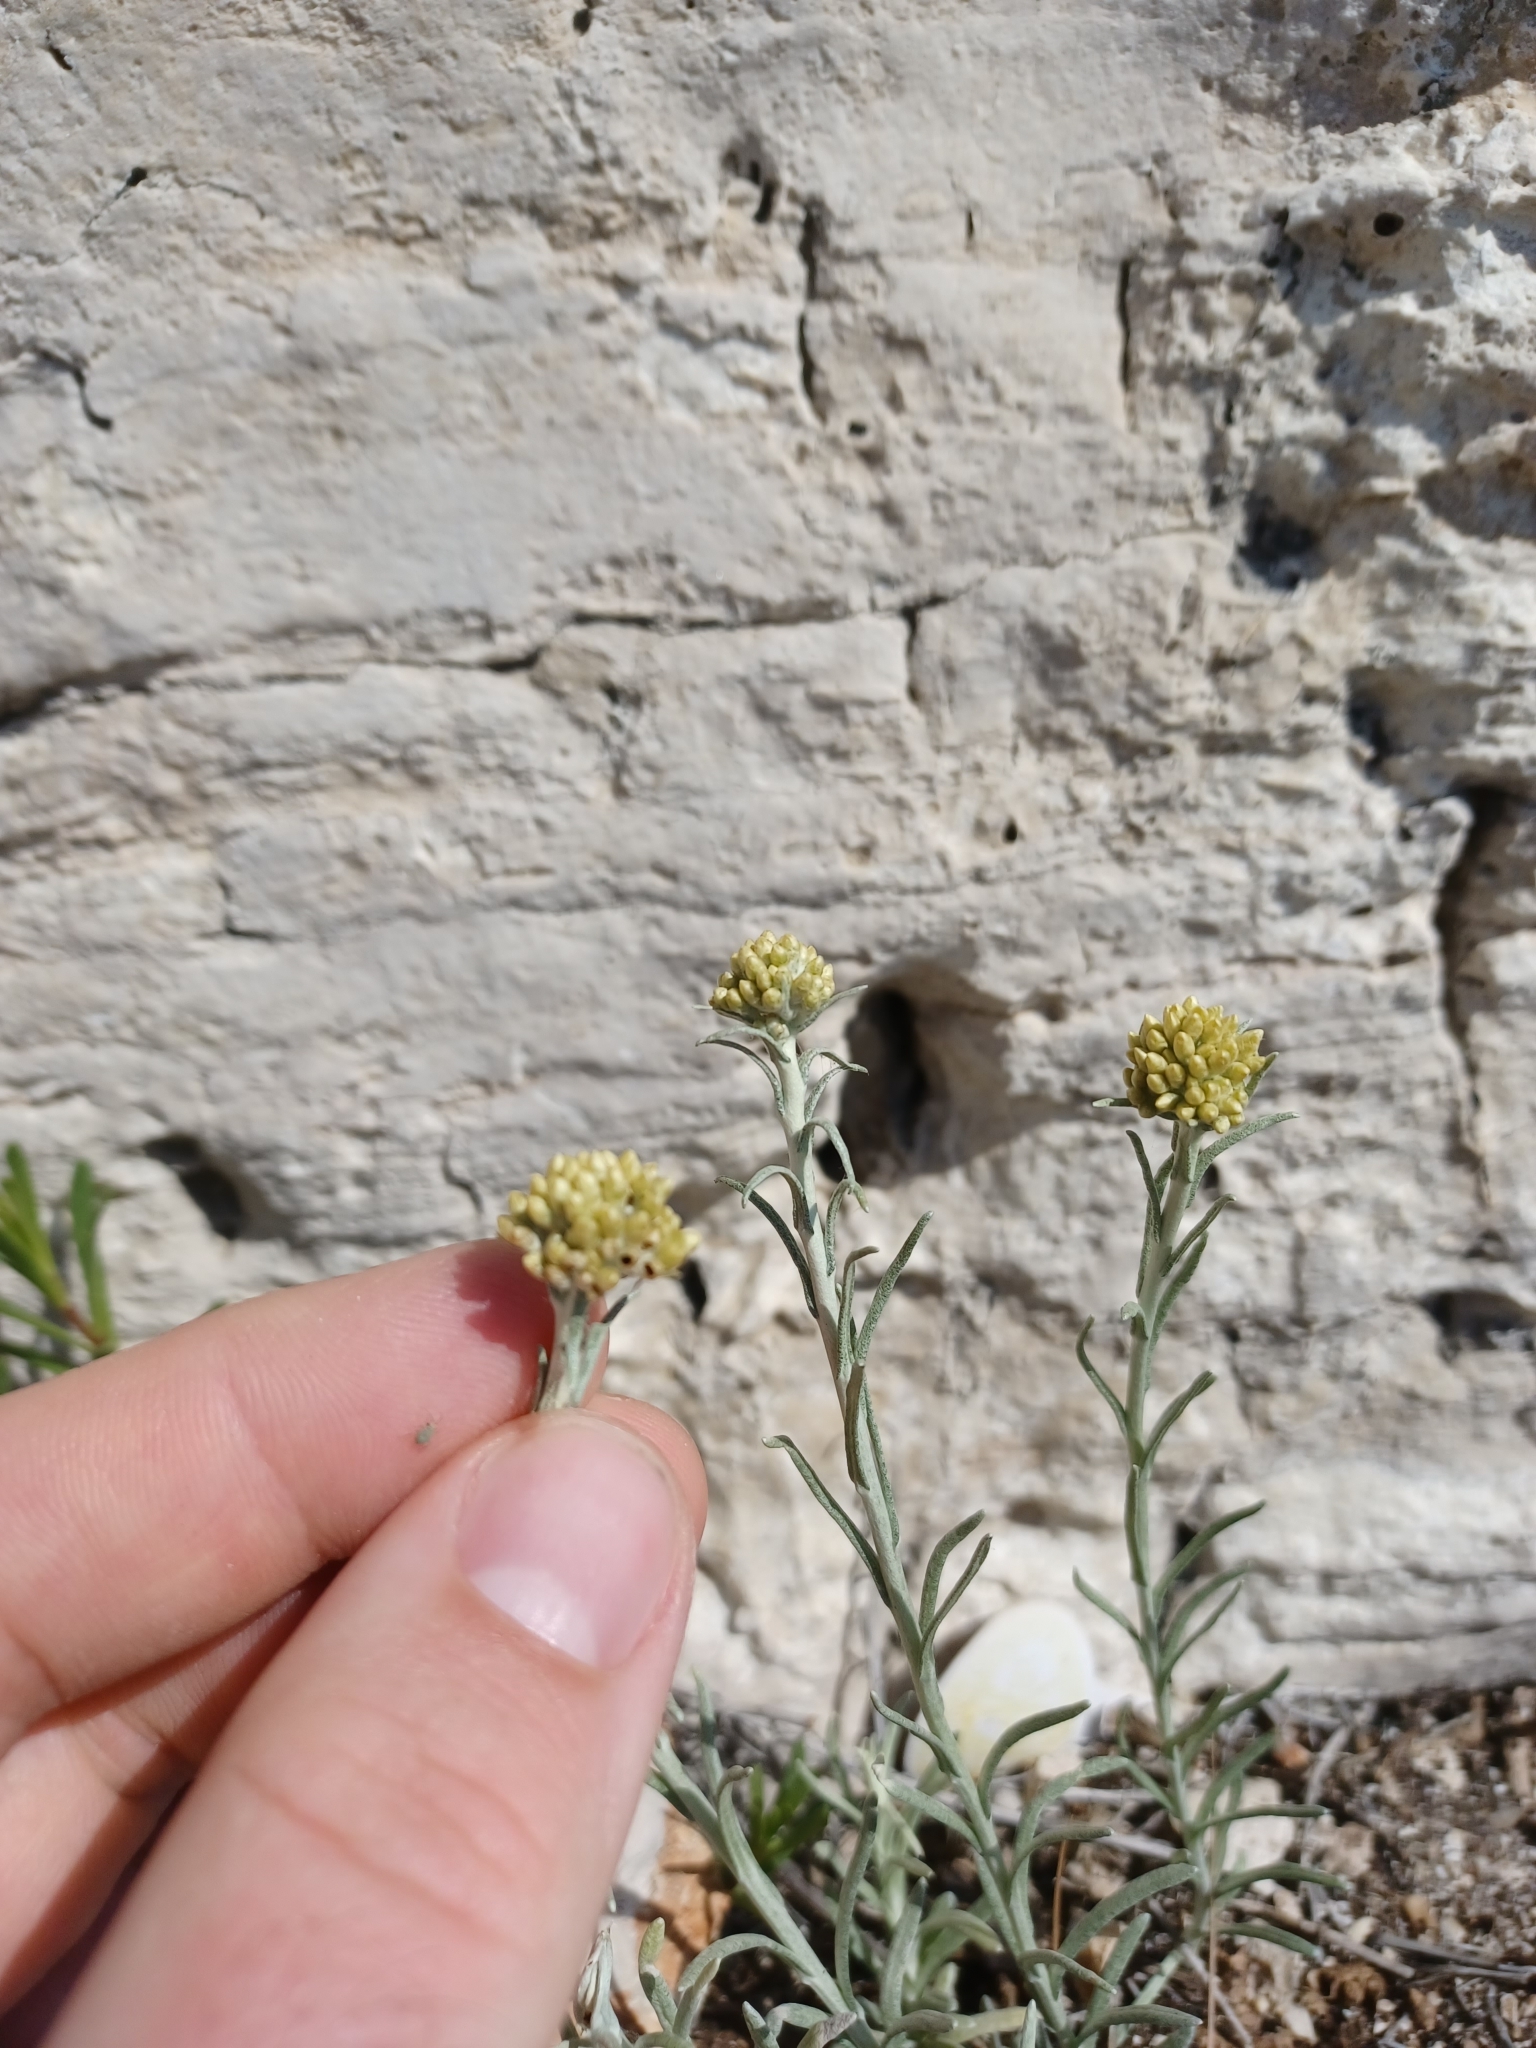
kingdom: Plantae
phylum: Tracheophyta
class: Magnoliopsida
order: Asterales
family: Asteraceae
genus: Helichrysum
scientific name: Helichrysum italicum
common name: Curryplant
